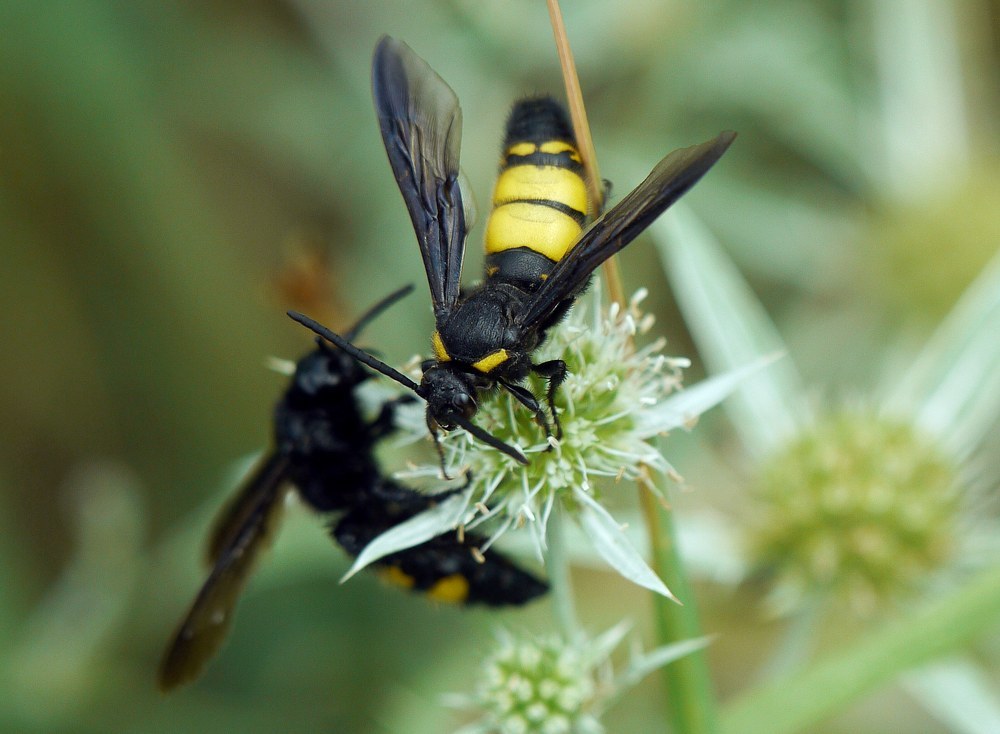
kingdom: Animalia
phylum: Arthropoda
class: Insecta
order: Hymenoptera
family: Vespidae
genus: Vespa
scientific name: Vespa galbula
